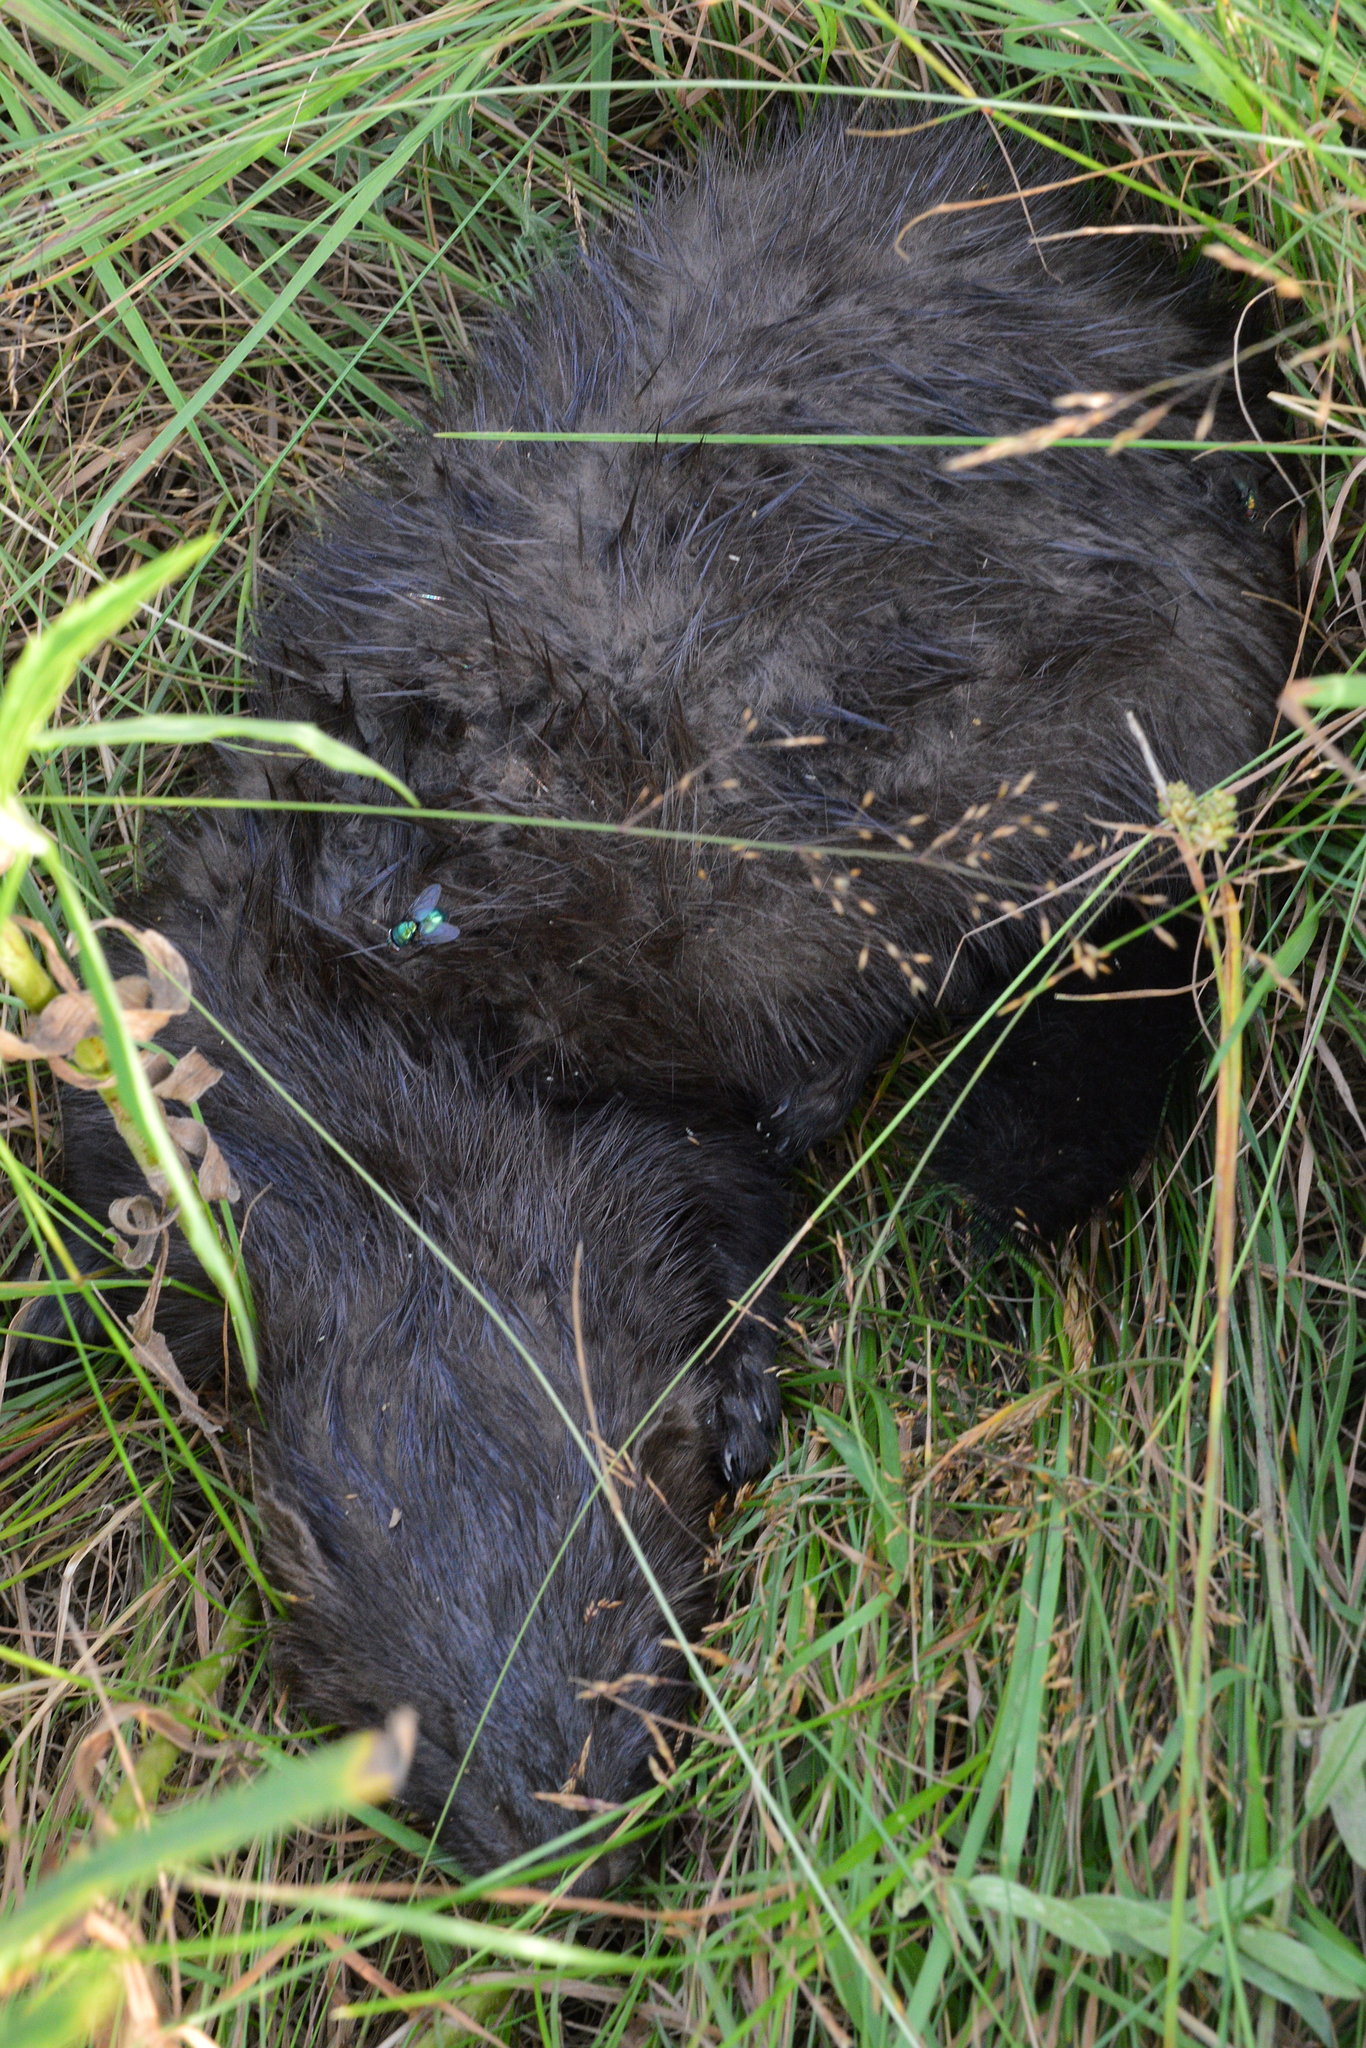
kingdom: Animalia
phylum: Chordata
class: Mammalia
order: Carnivora
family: Mustelidae
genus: Mustela
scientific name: Mustela
